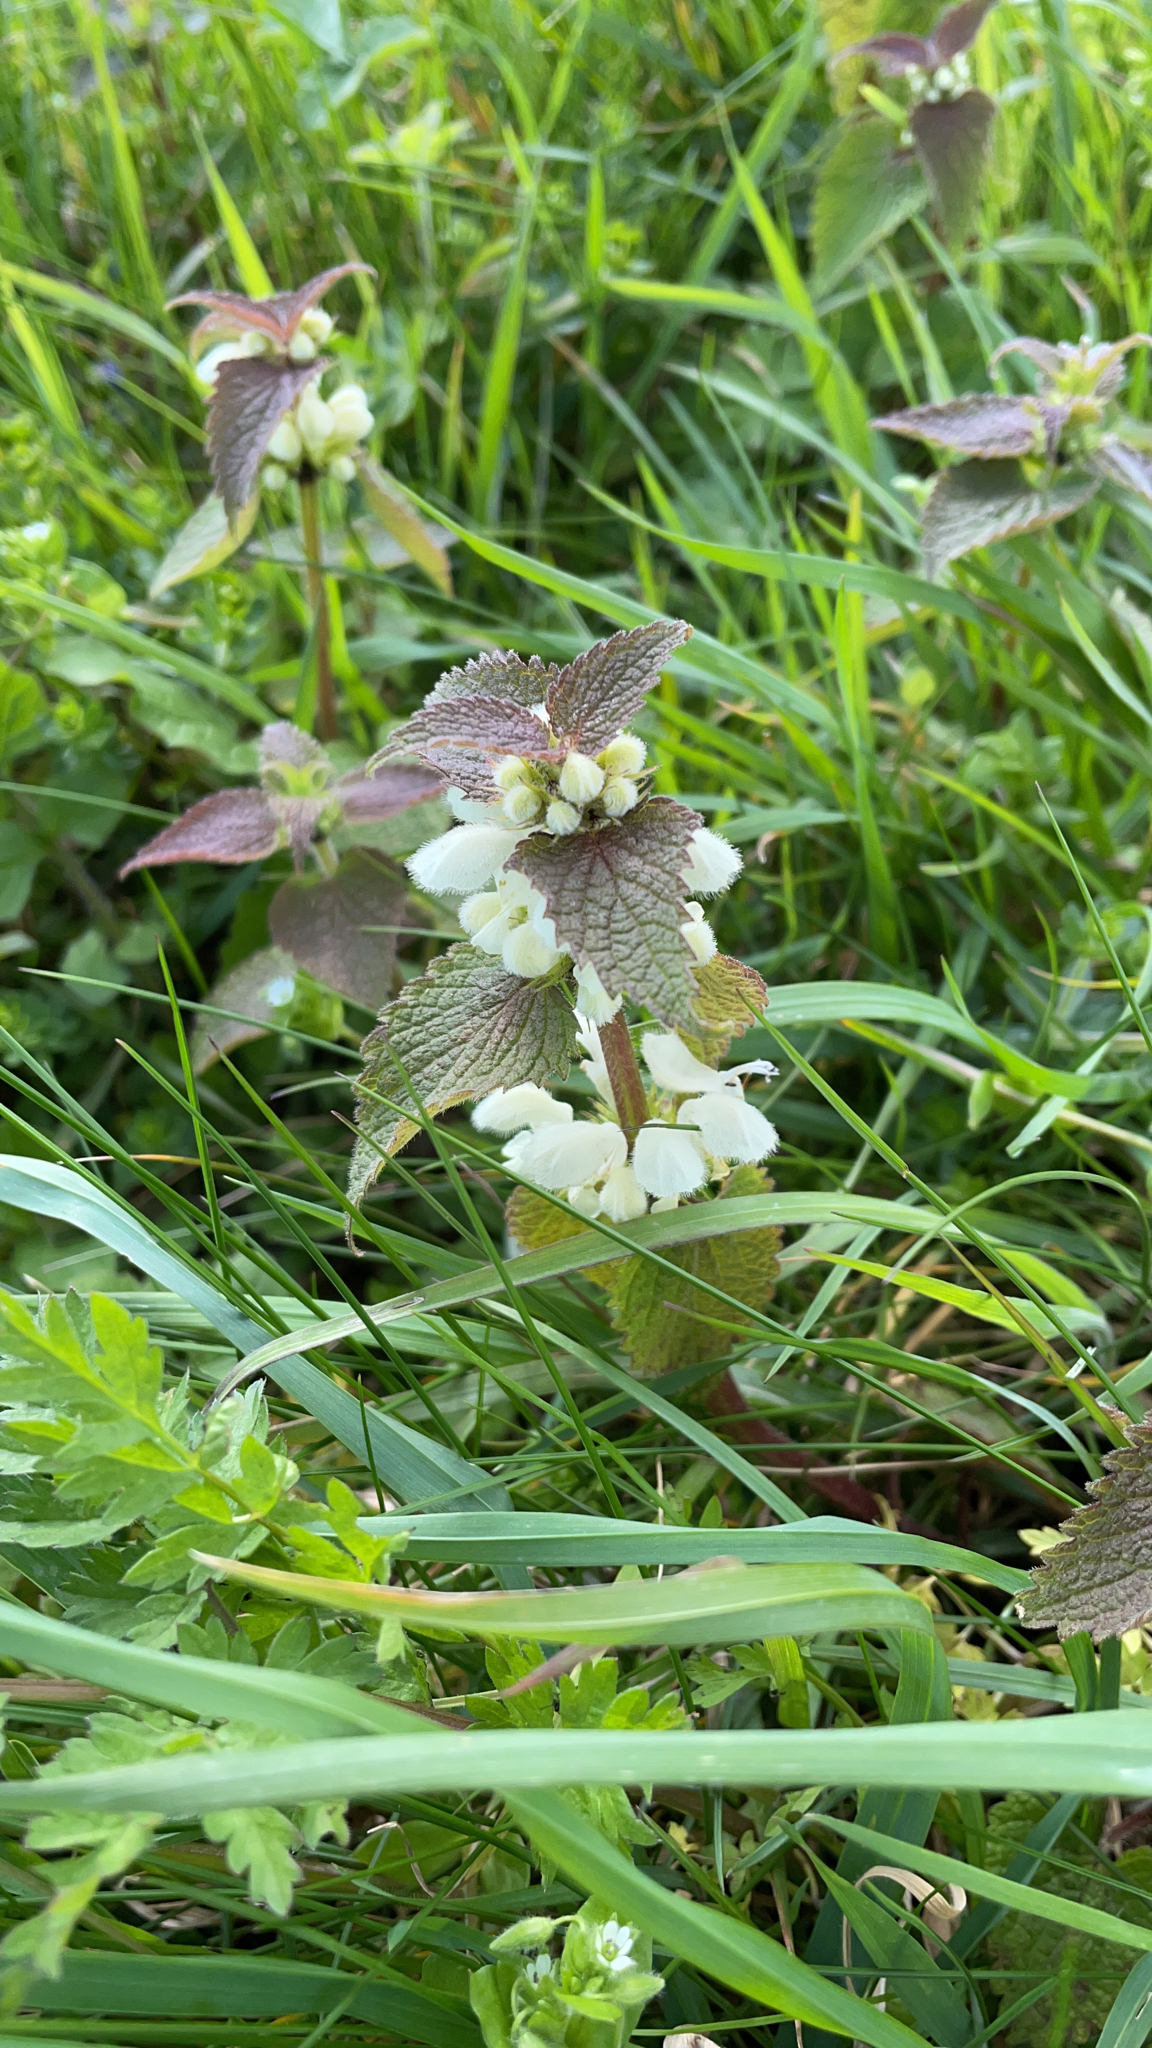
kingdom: Plantae
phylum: Tracheophyta
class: Magnoliopsida
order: Lamiales
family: Lamiaceae
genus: Lamium
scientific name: Lamium album
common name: White dead-nettle
